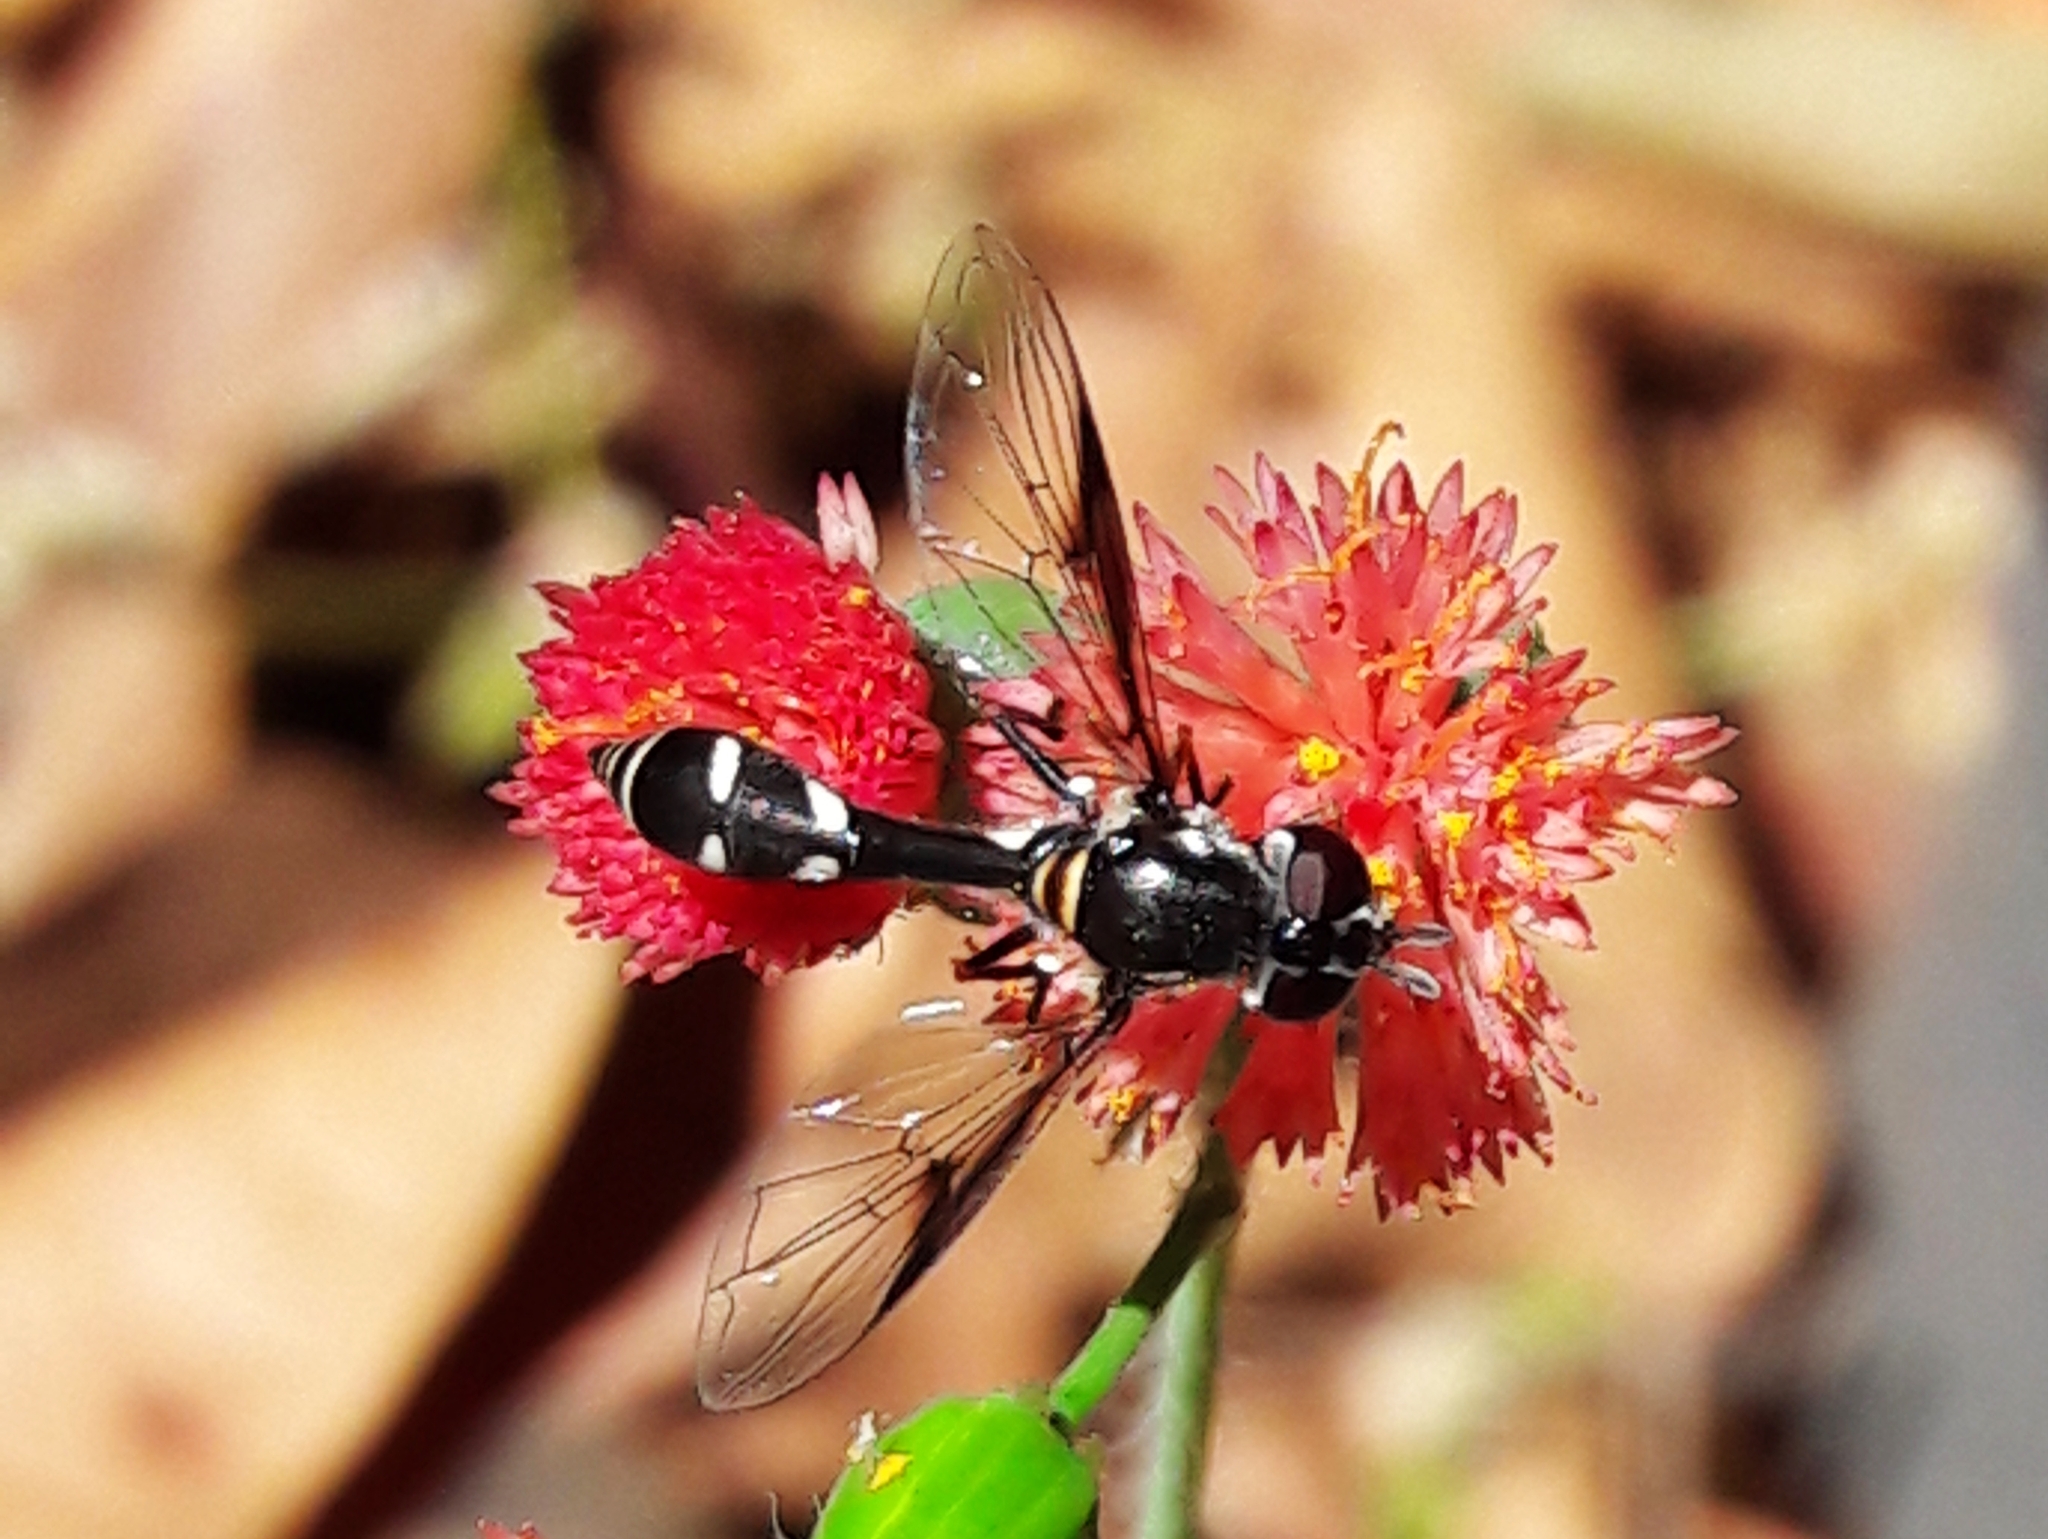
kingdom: Animalia
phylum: Arthropoda
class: Insecta
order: Diptera
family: Syrphidae
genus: Dioprosopa
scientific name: Dioprosopa clavatus
